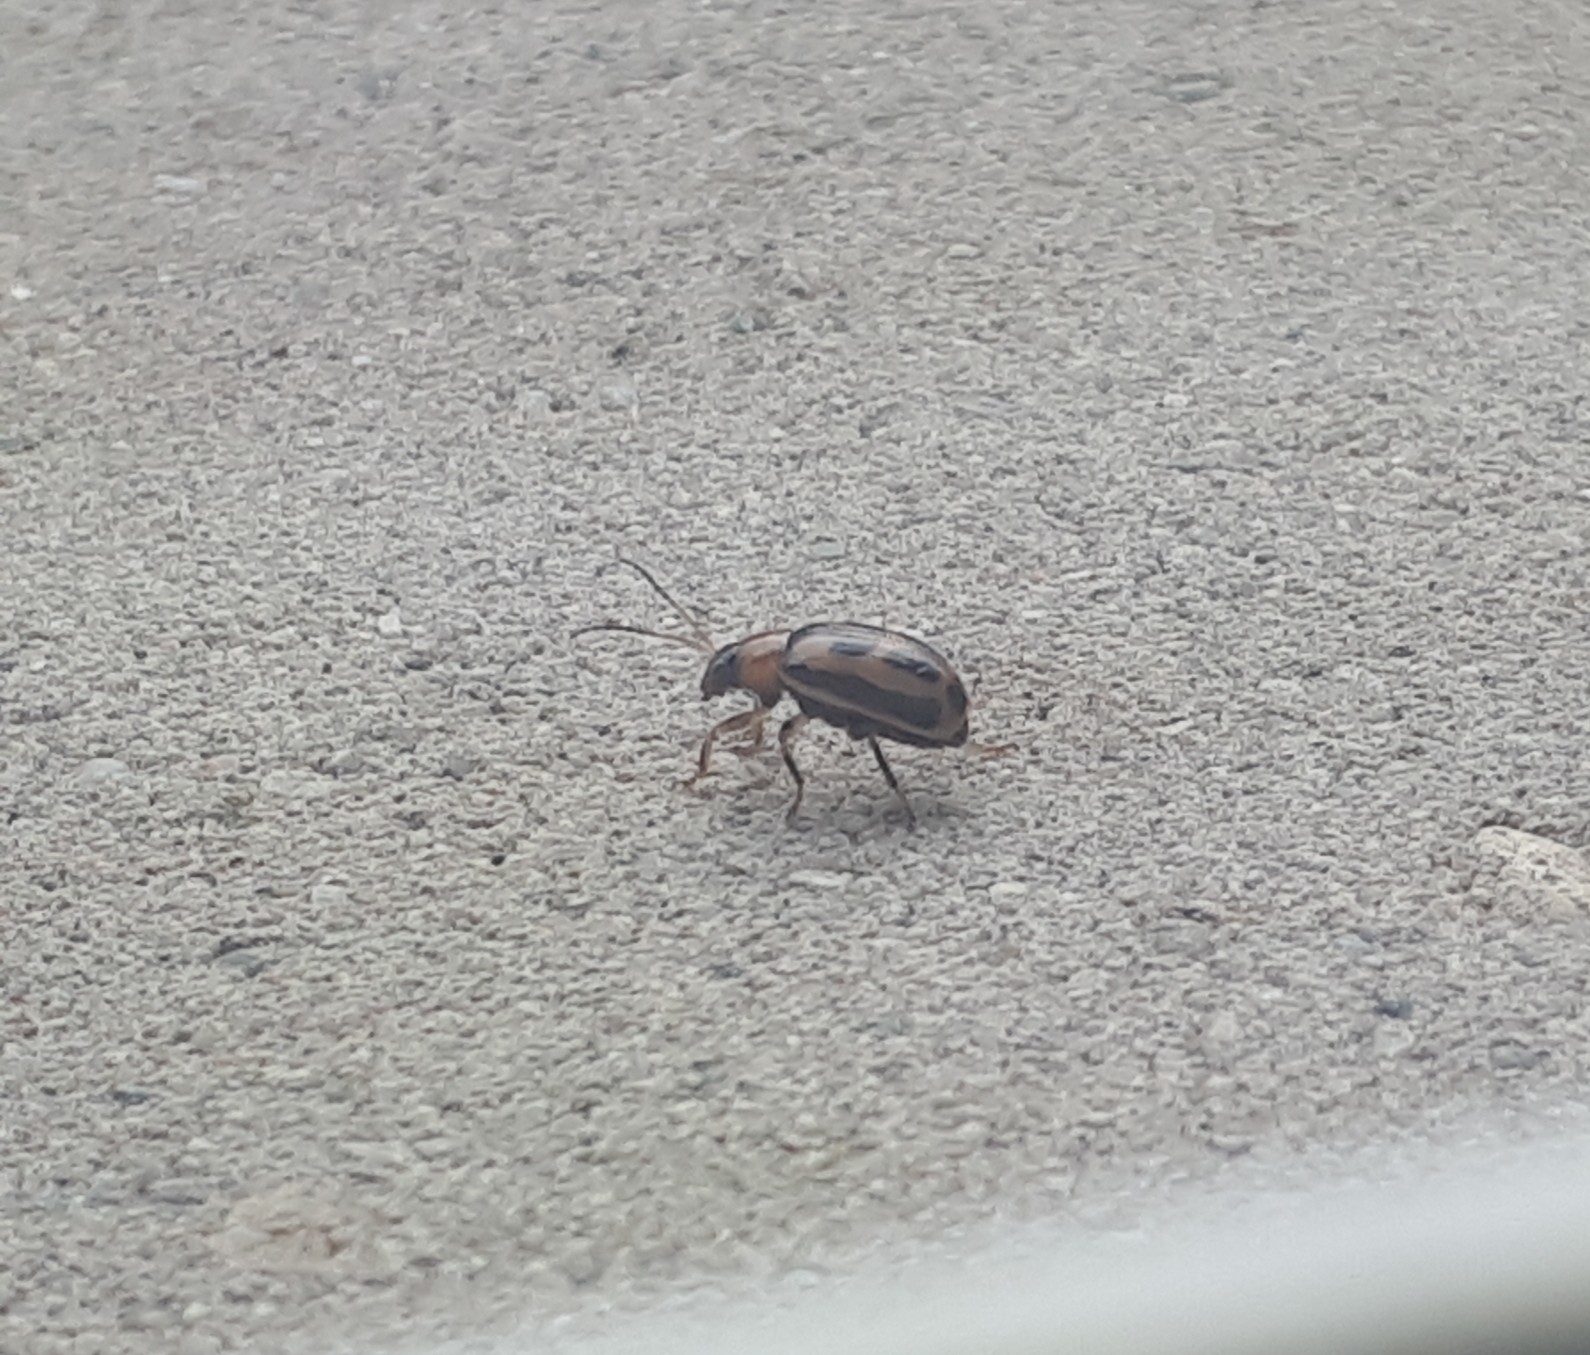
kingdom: Animalia
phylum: Arthropoda
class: Insecta
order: Coleoptera
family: Chrysomelidae
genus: Cerotoma
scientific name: Cerotoma trifurcata
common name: Bean leaf beetle
